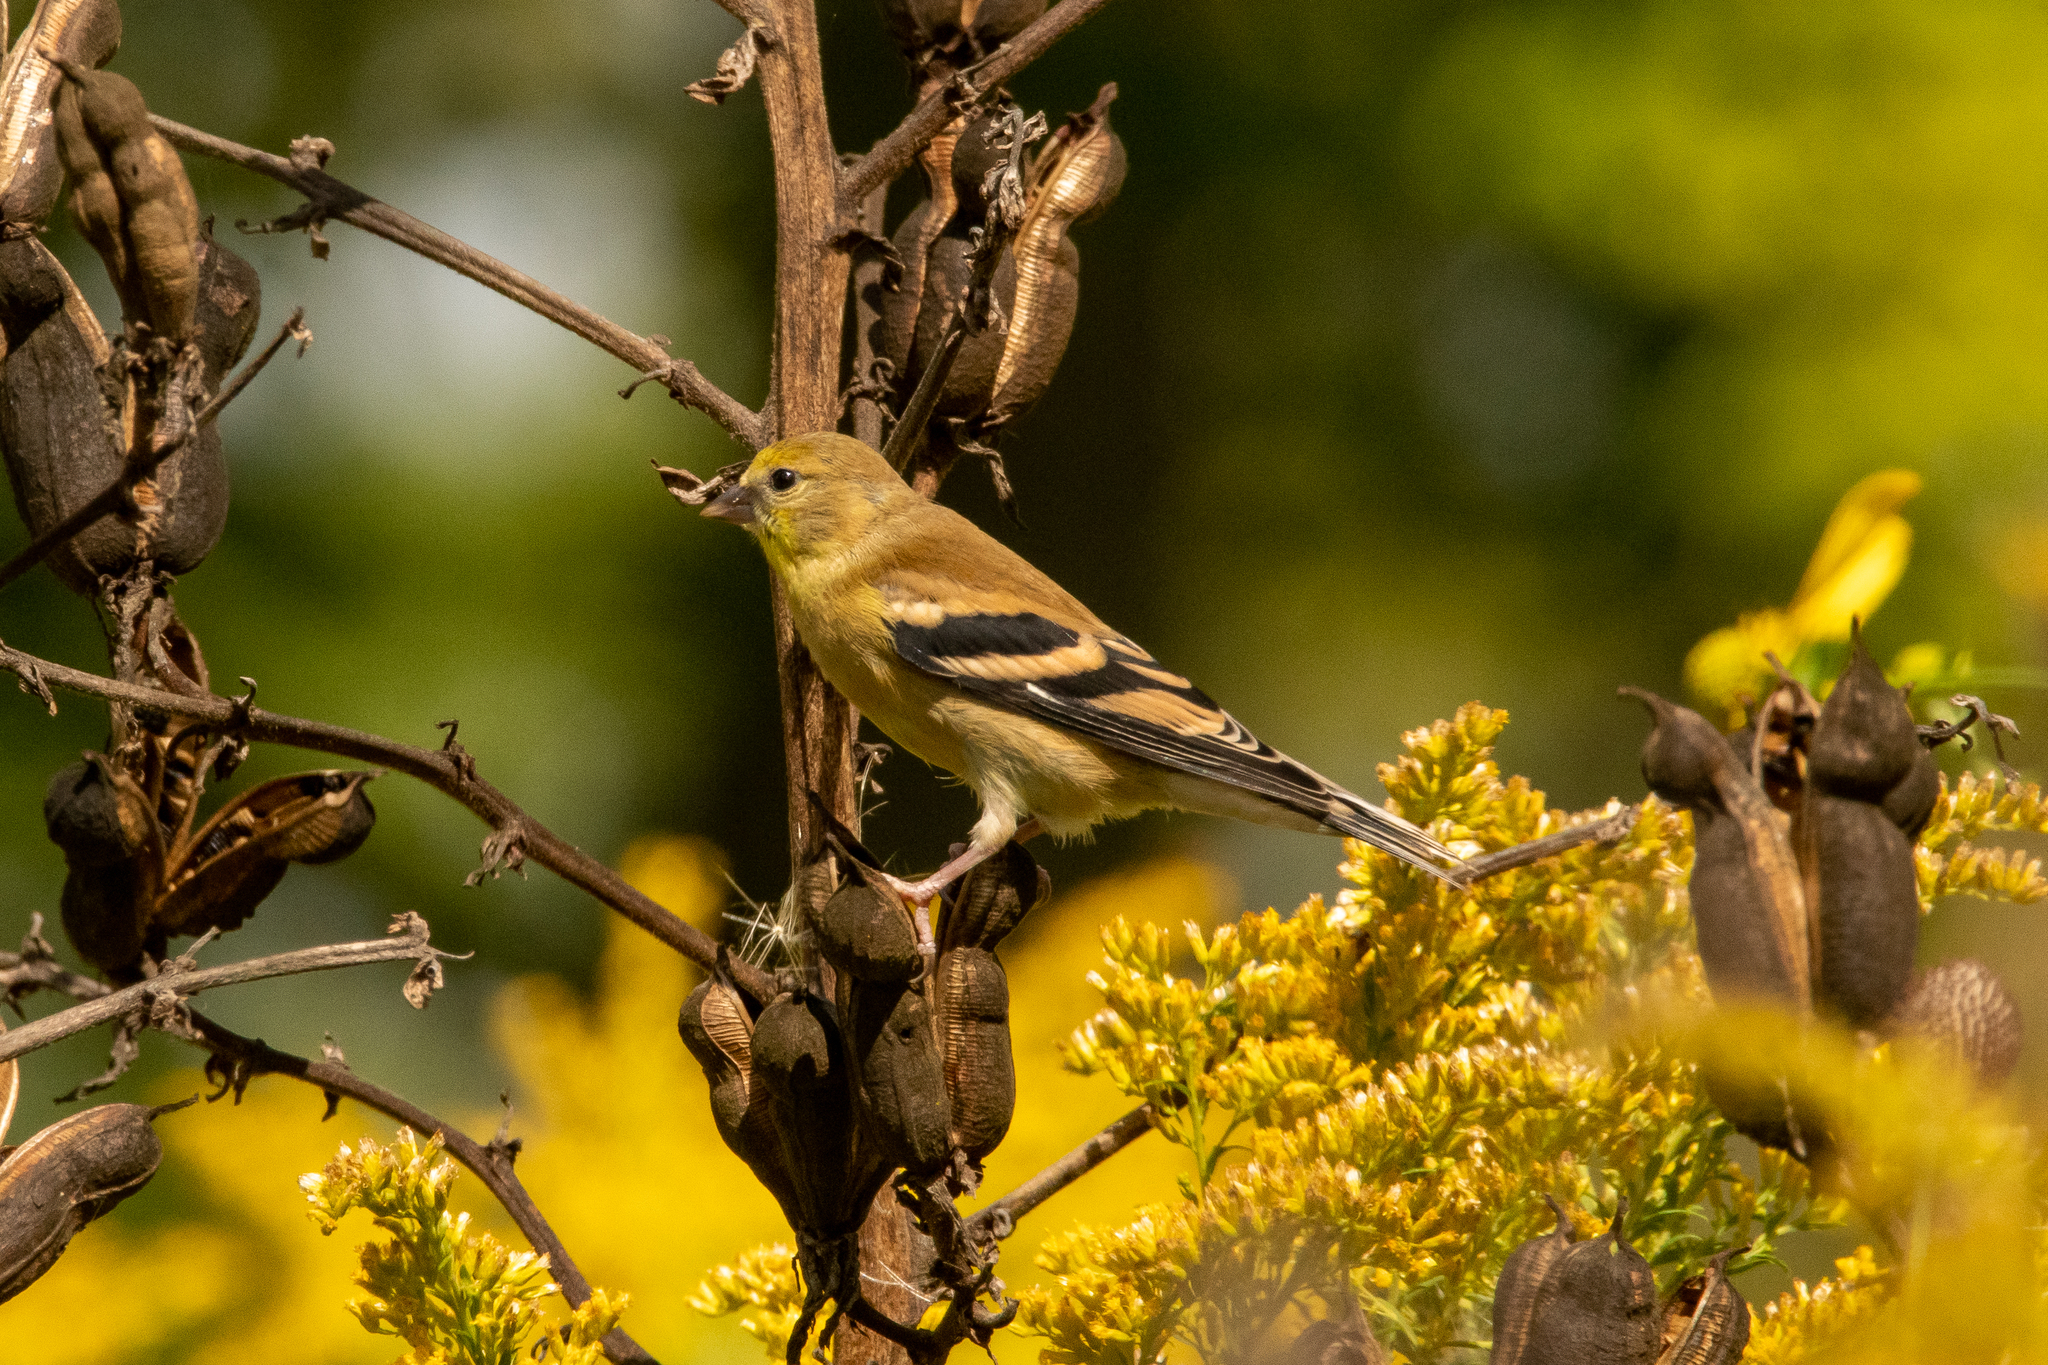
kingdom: Animalia
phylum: Chordata
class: Aves
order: Passeriformes
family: Fringillidae
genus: Spinus
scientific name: Spinus tristis
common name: American goldfinch
